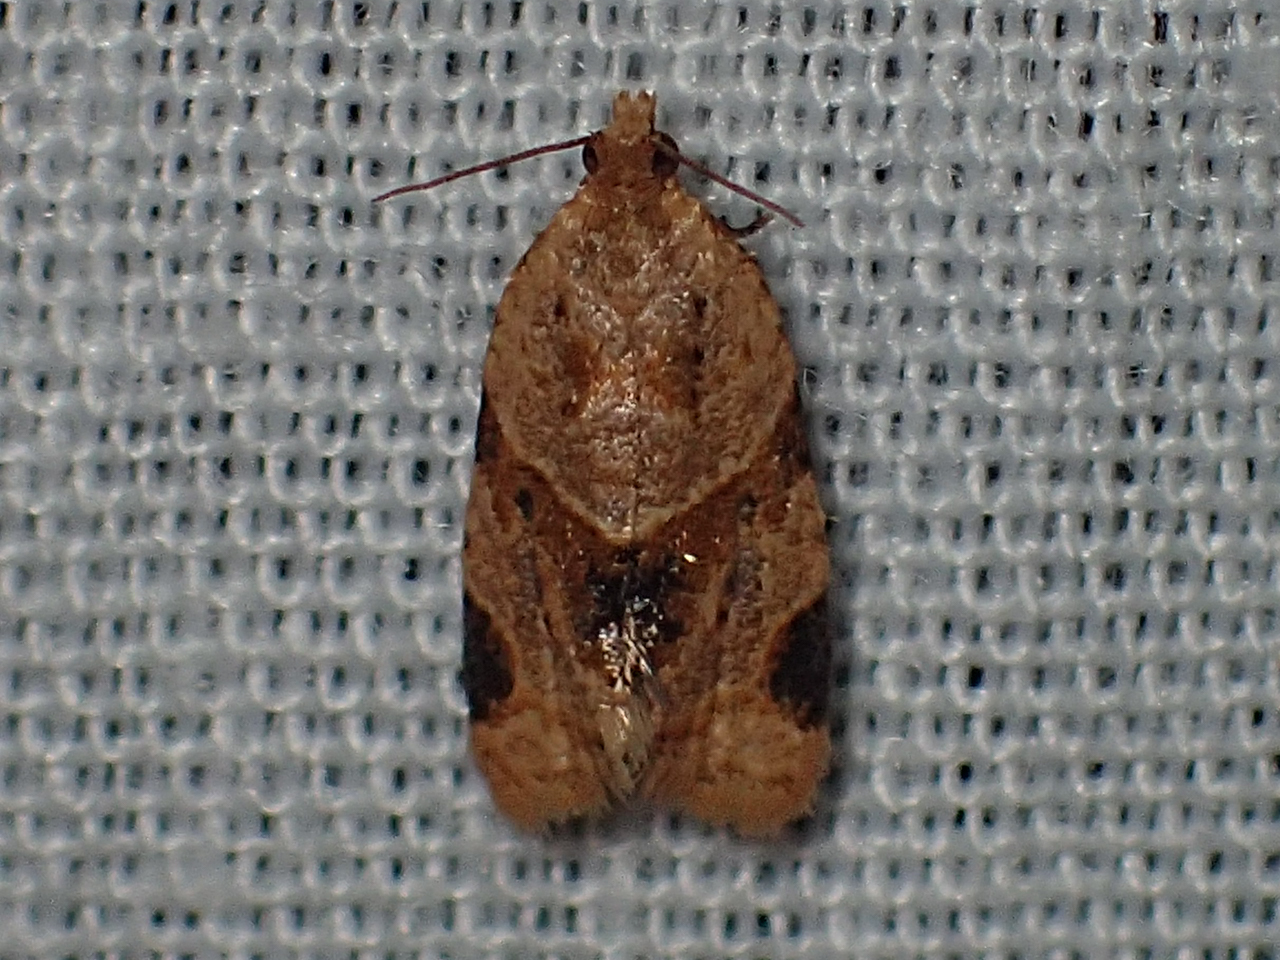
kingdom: Animalia
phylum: Arthropoda
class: Insecta
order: Lepidoptera
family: Tortricidae
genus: Clepsis
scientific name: Clepsis peritana
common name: Garden tortrix
